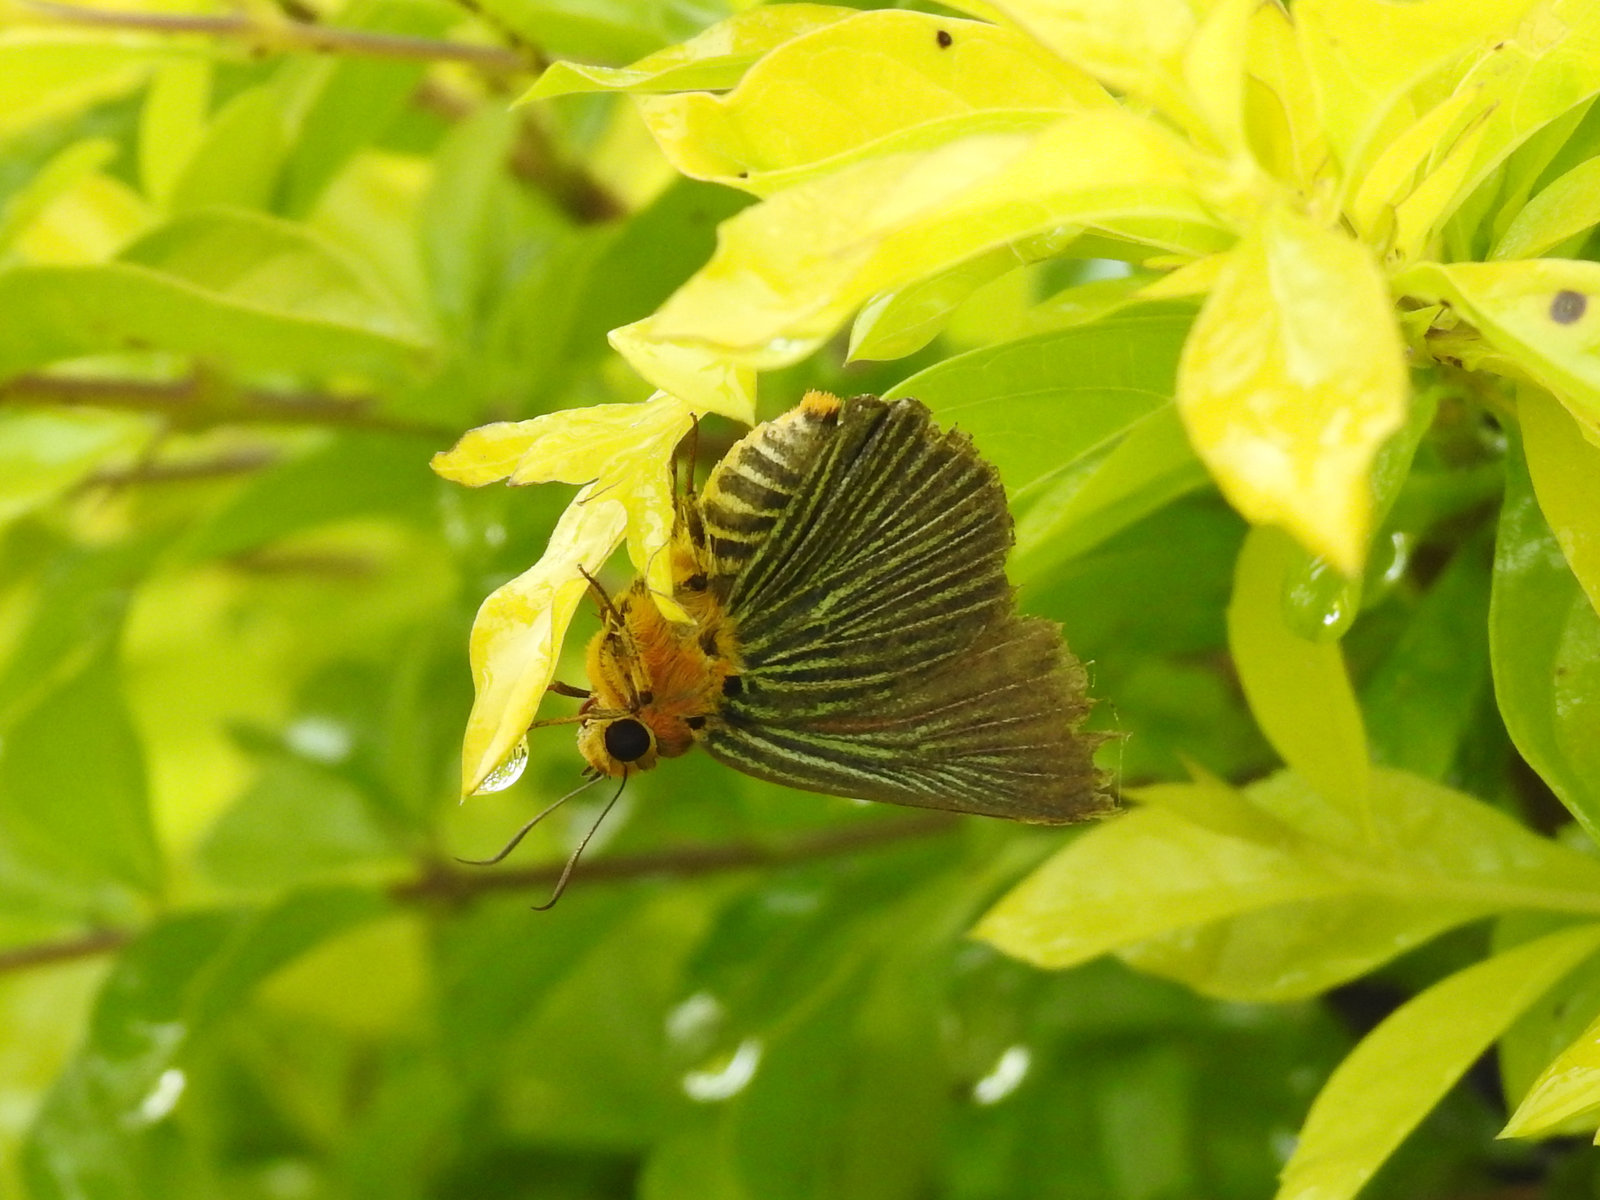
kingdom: Animalia
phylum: Arthropoda
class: Insecta
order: Lepidoptera
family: Hesperiidae
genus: Bibasis
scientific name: Bibasis amara
